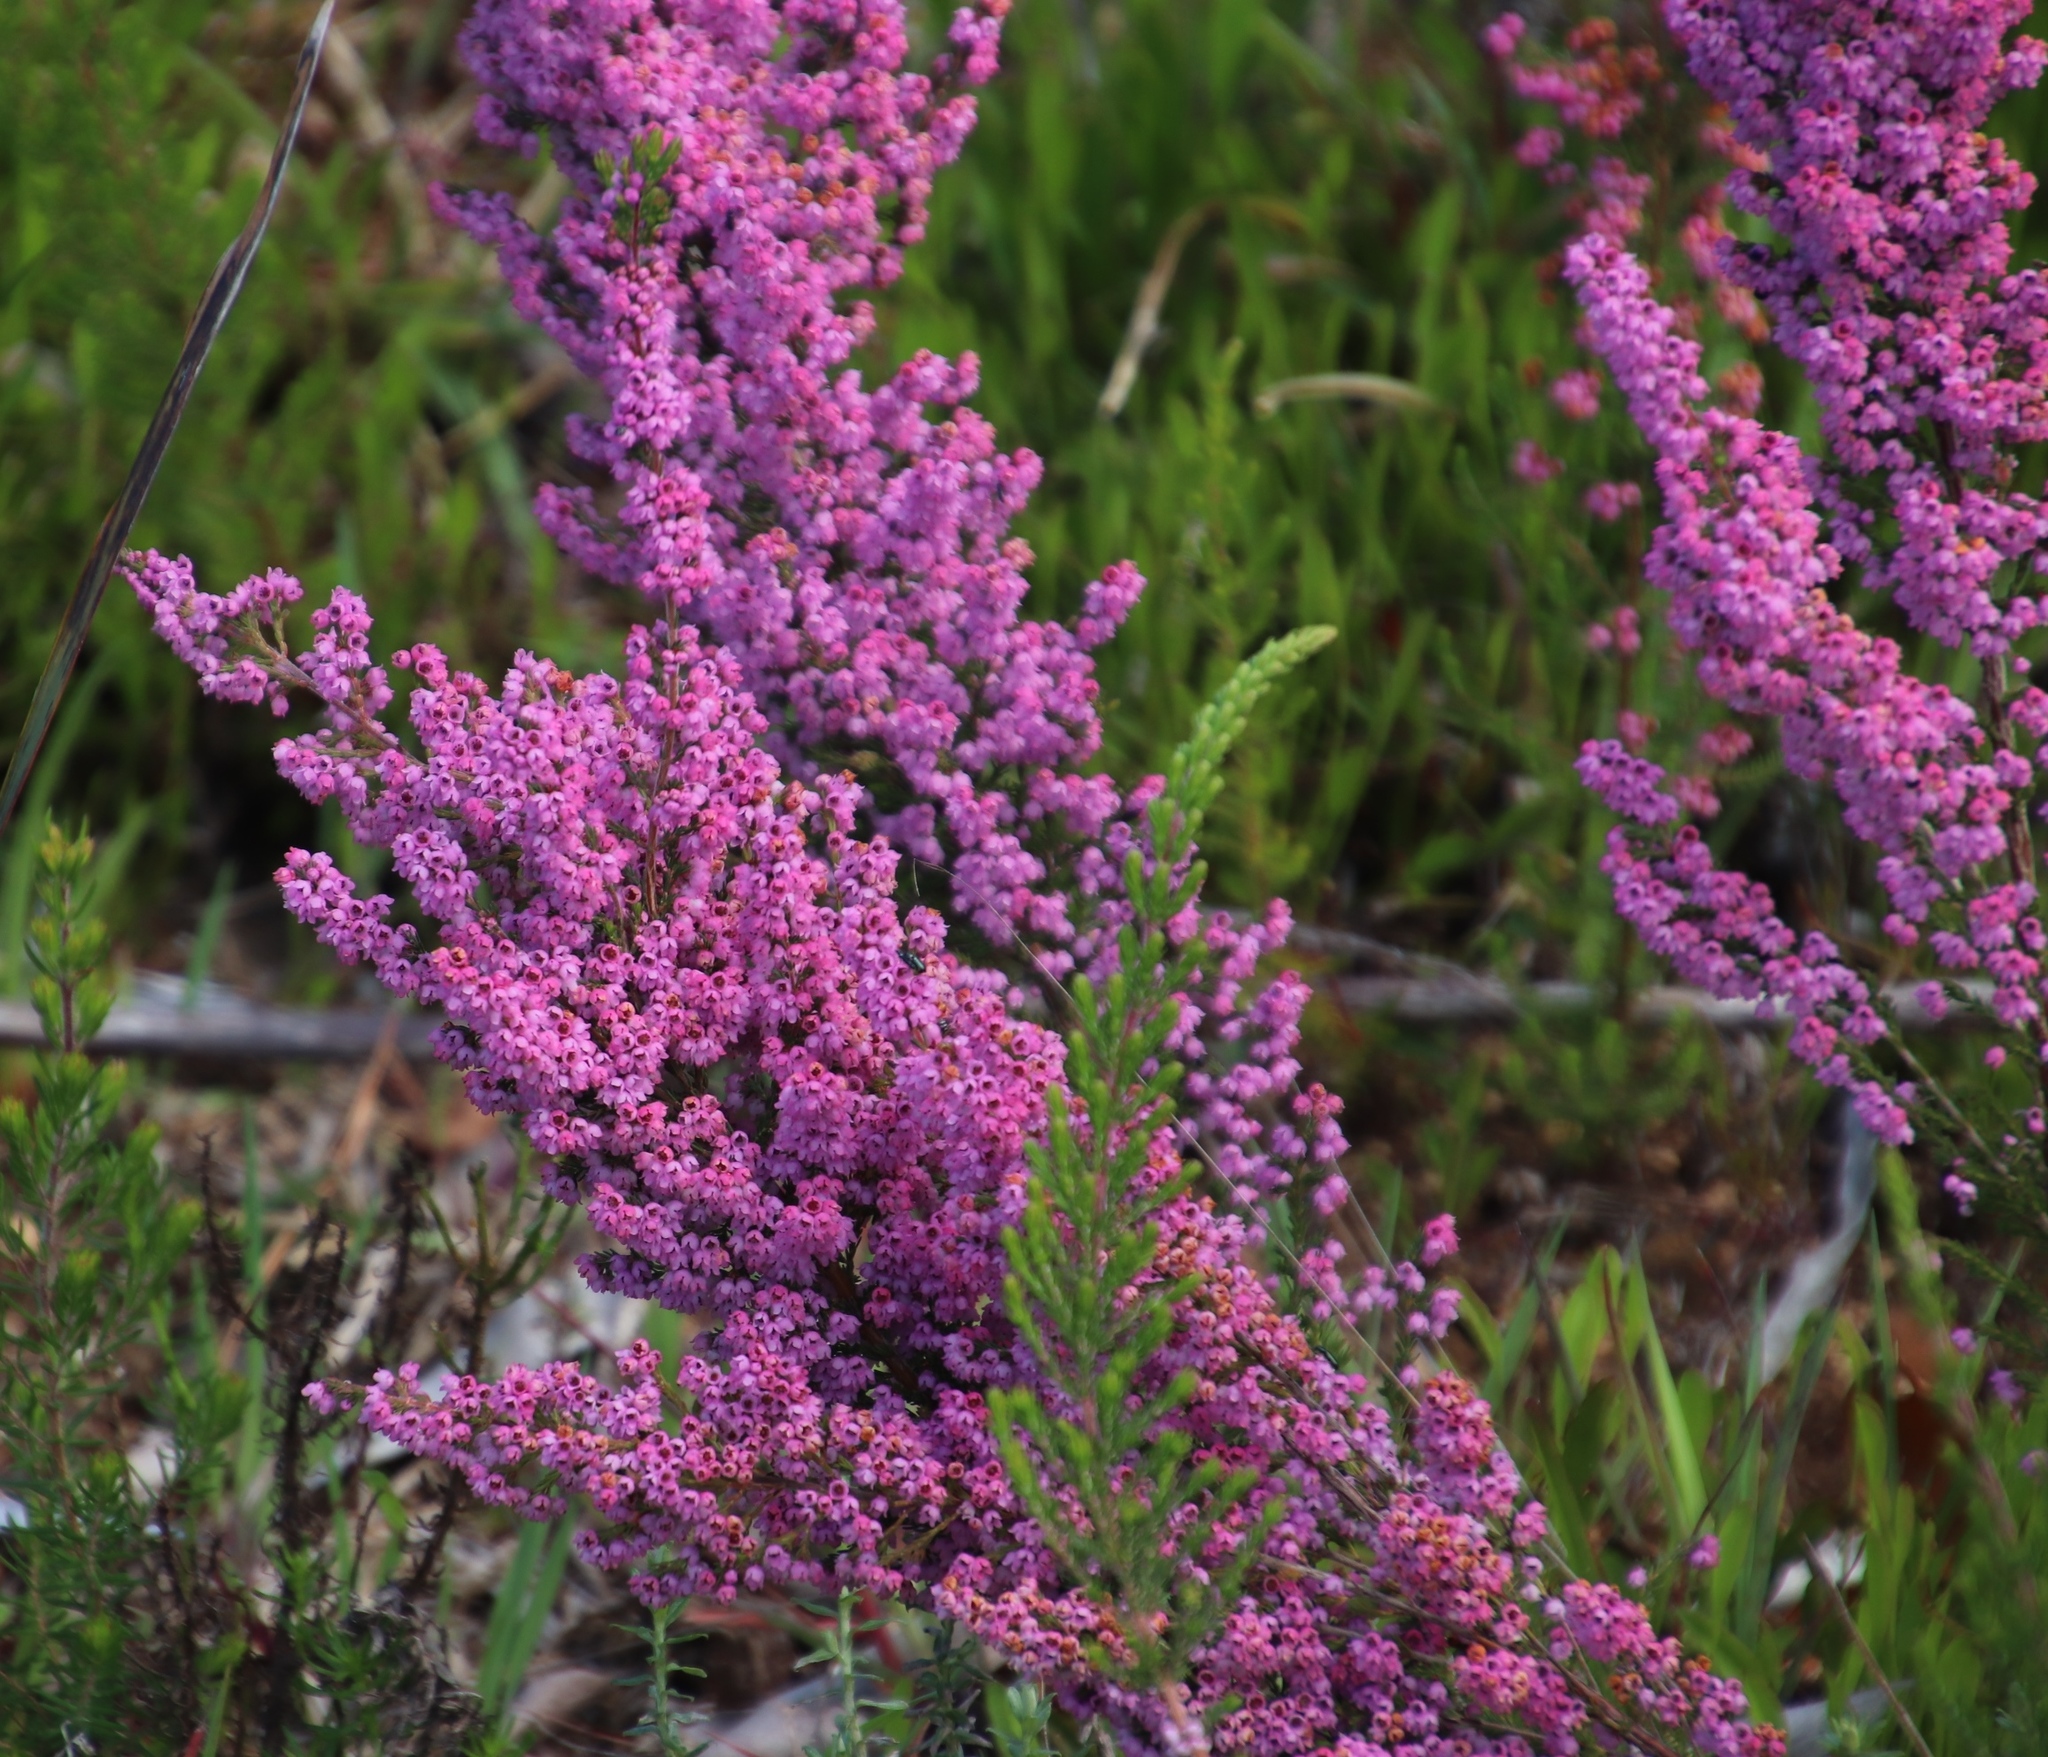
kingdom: Plantae
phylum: Tracheophyta
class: Magnoliopsida
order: Ericales
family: Ericaceae
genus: Erica
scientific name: Erica mauritanica
